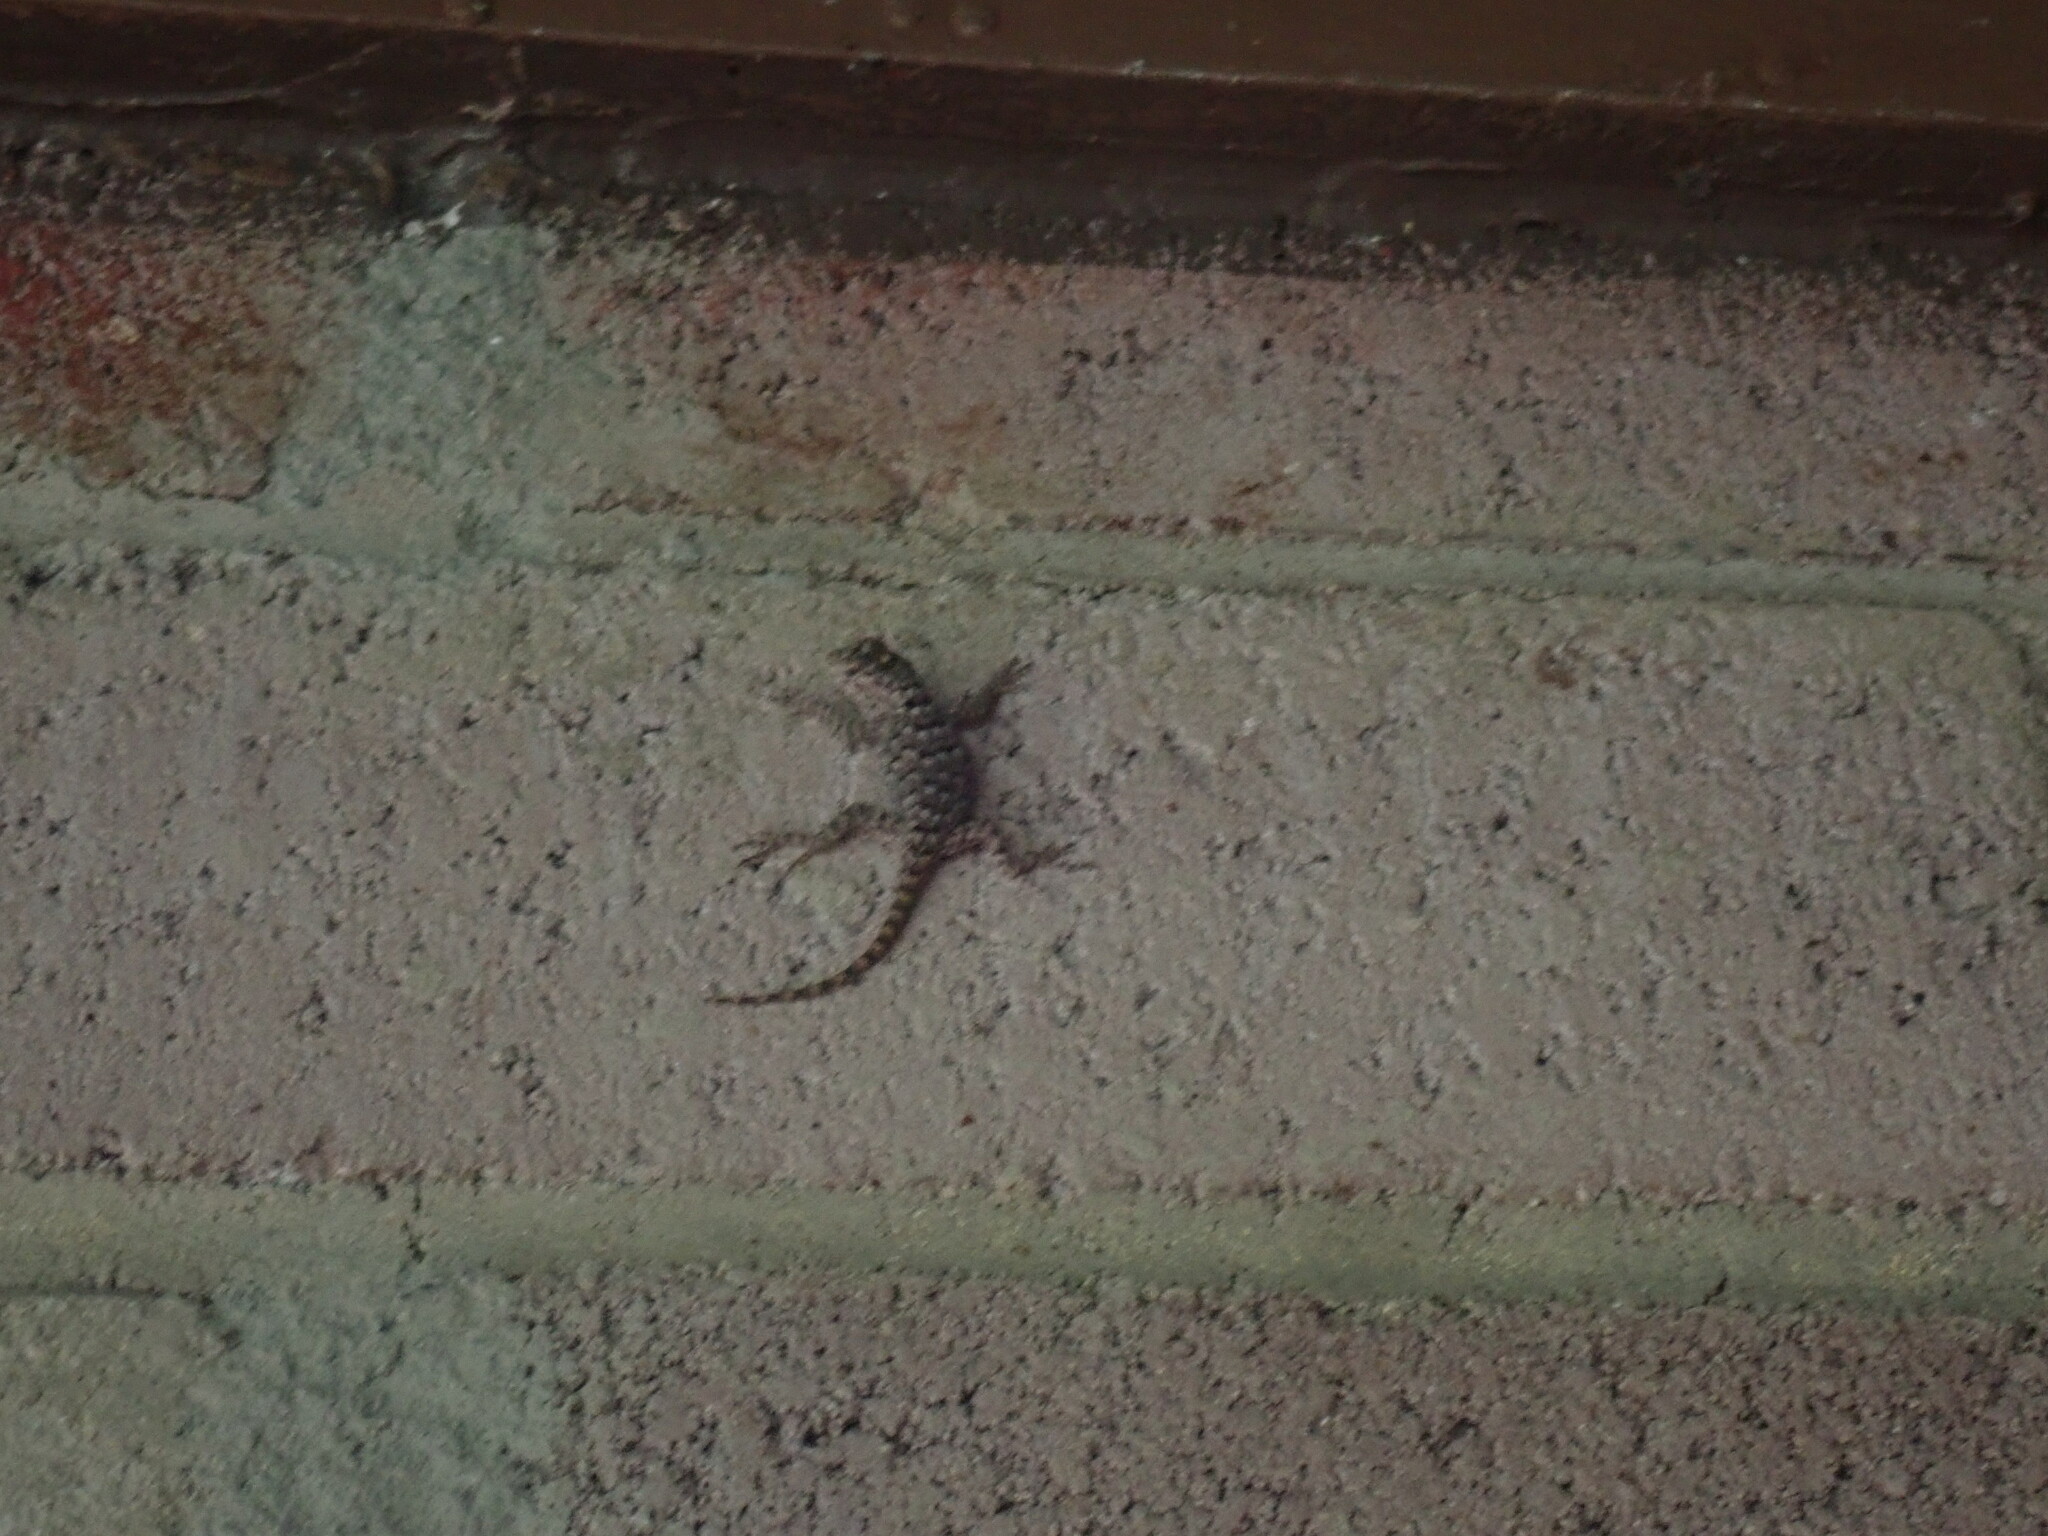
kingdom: Animalia
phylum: Chordata
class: Squamata
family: Phrynosomatidae
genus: Sceloporus
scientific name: Sceloporus clarkii
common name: Clark's spiny lizard
